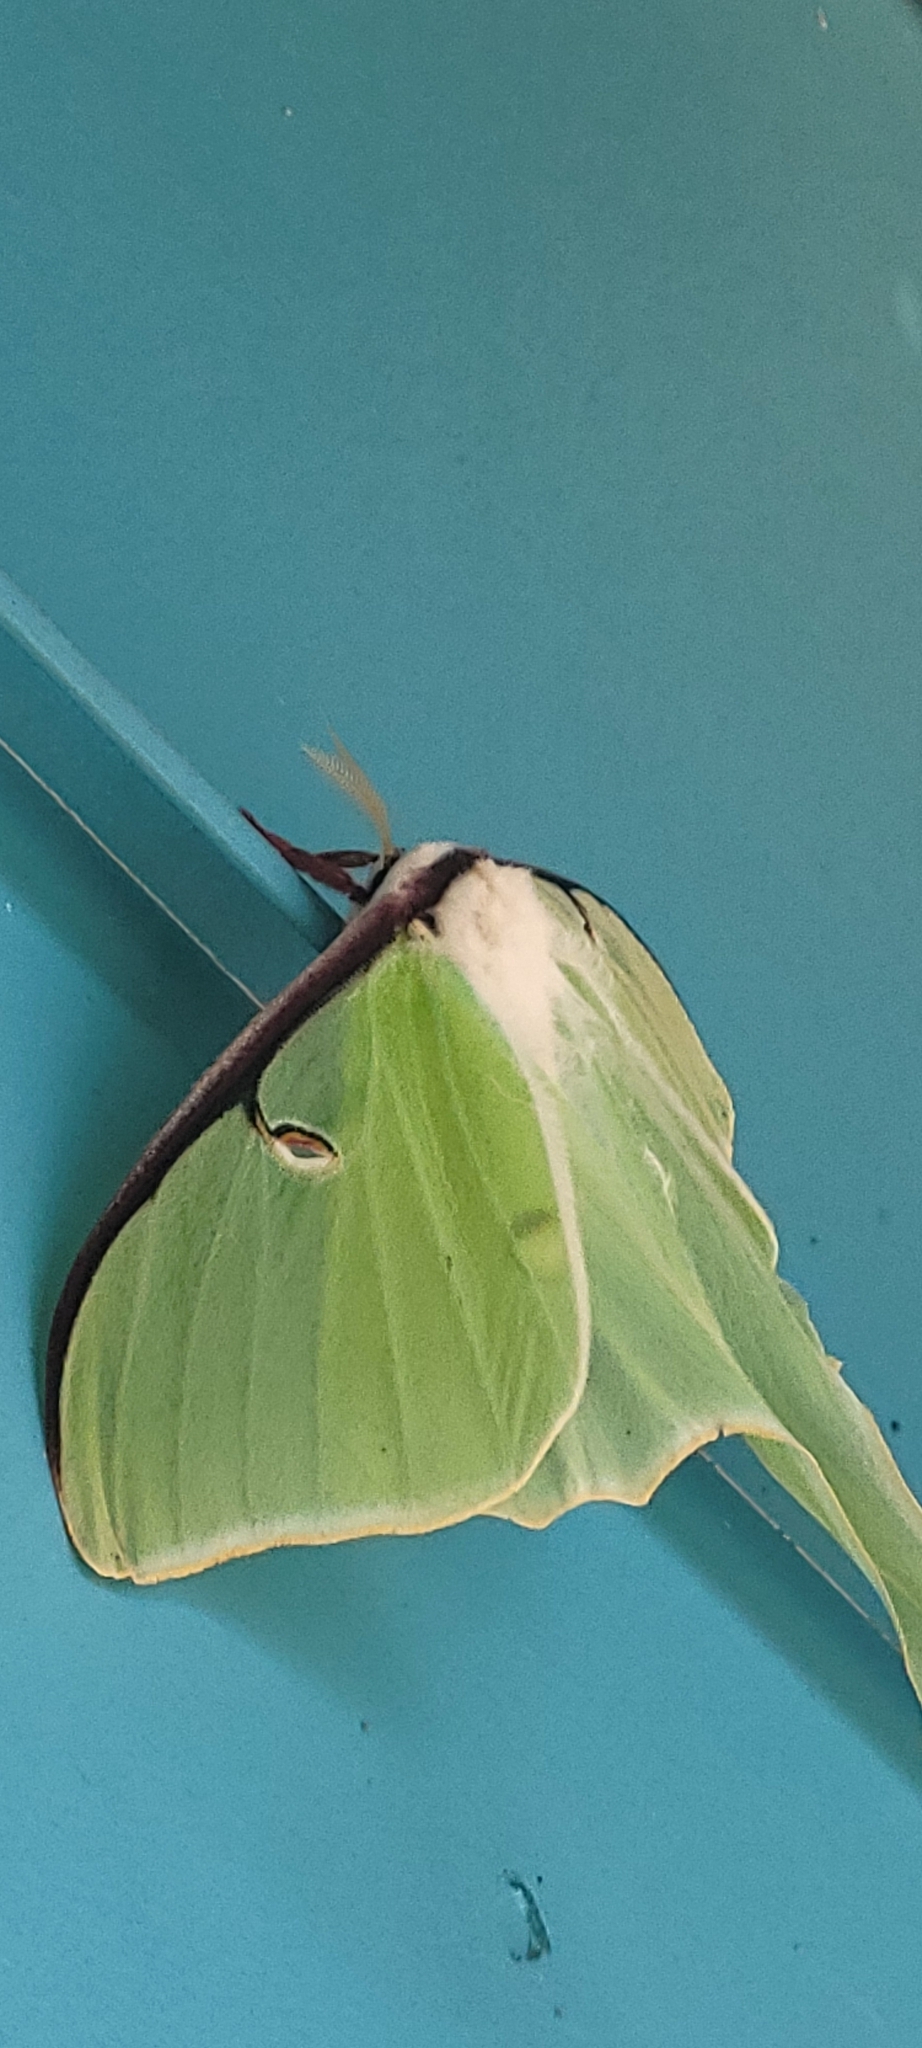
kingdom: Animalia
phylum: Arthropoda
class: Insecta
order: Lepidoptera
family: Saturniidae
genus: Actias
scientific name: Actias luna
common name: Luna moth
